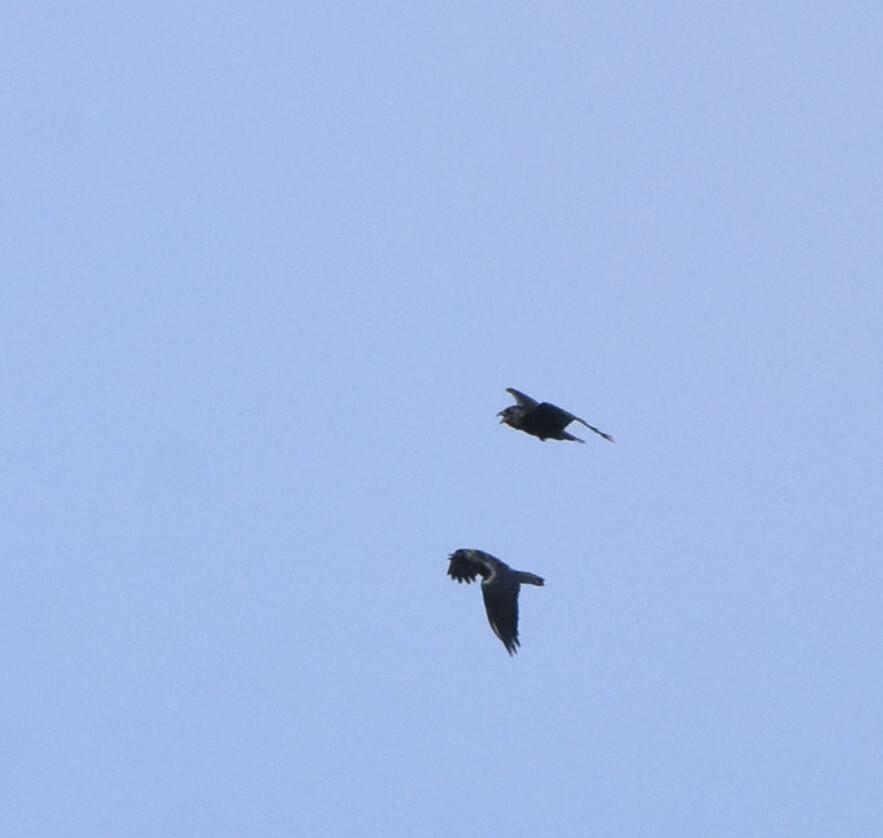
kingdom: Animalia
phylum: Chordata
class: Aves
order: Passeriformes
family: Corvidae
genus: Corvus
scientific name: Corvus corax
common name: Common raven
